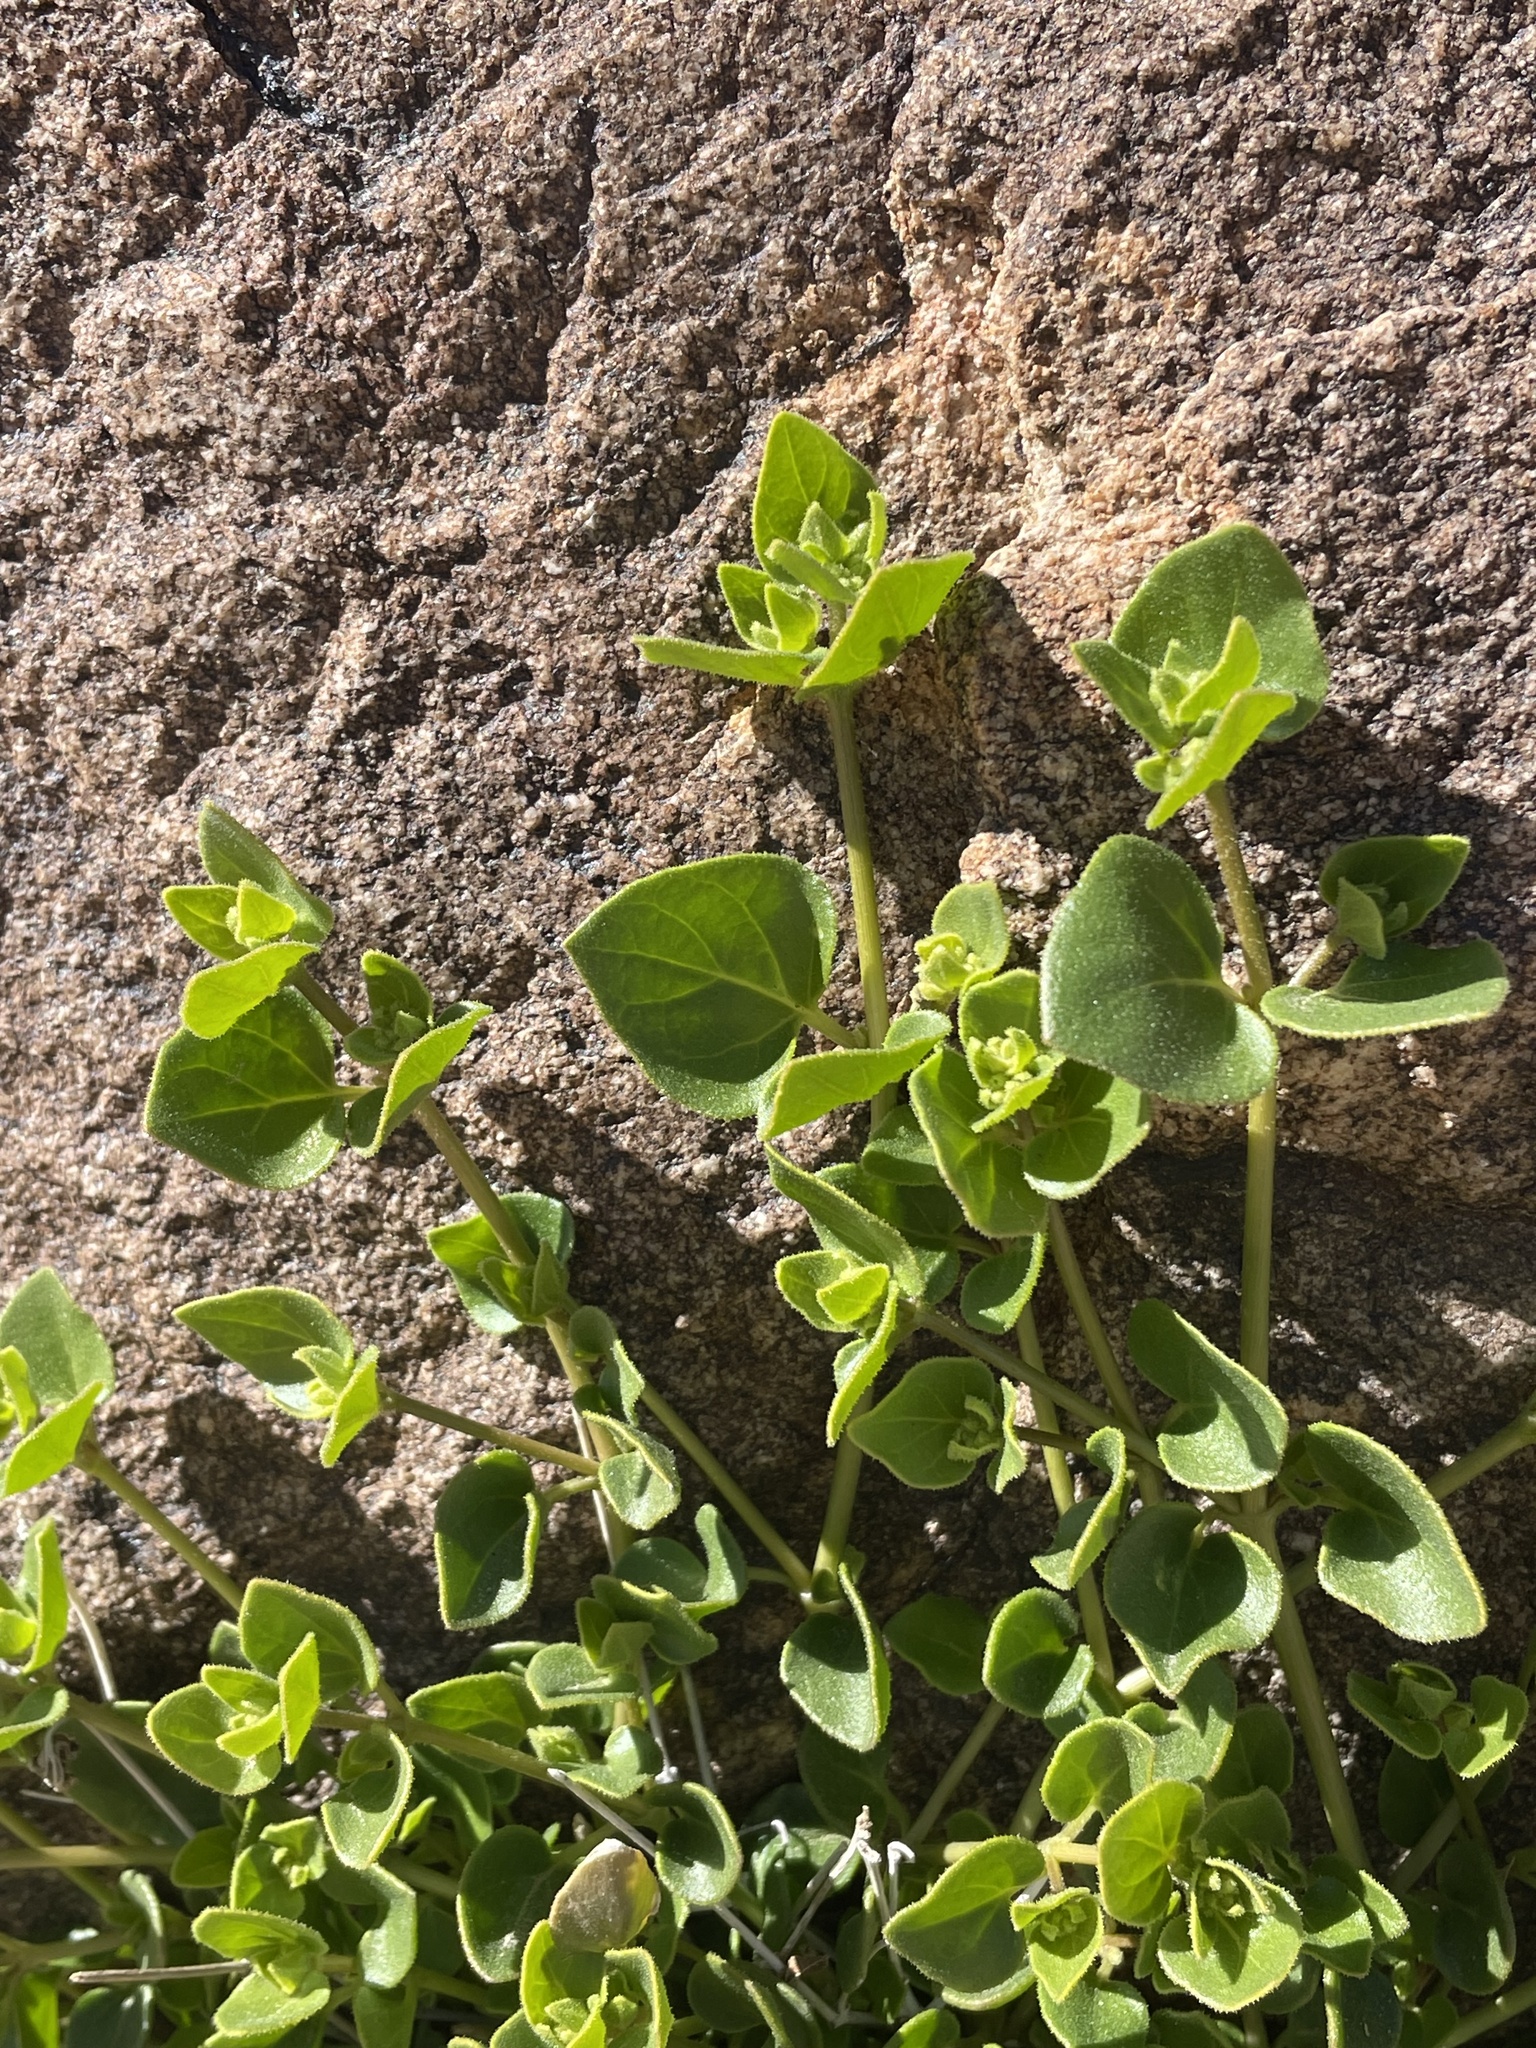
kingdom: Plantae
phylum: Tracheophyta
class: Magnoliopsida
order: Caryophyllales
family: Nyctaginaceae
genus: Mirabilis
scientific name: Mirabilis laevis
